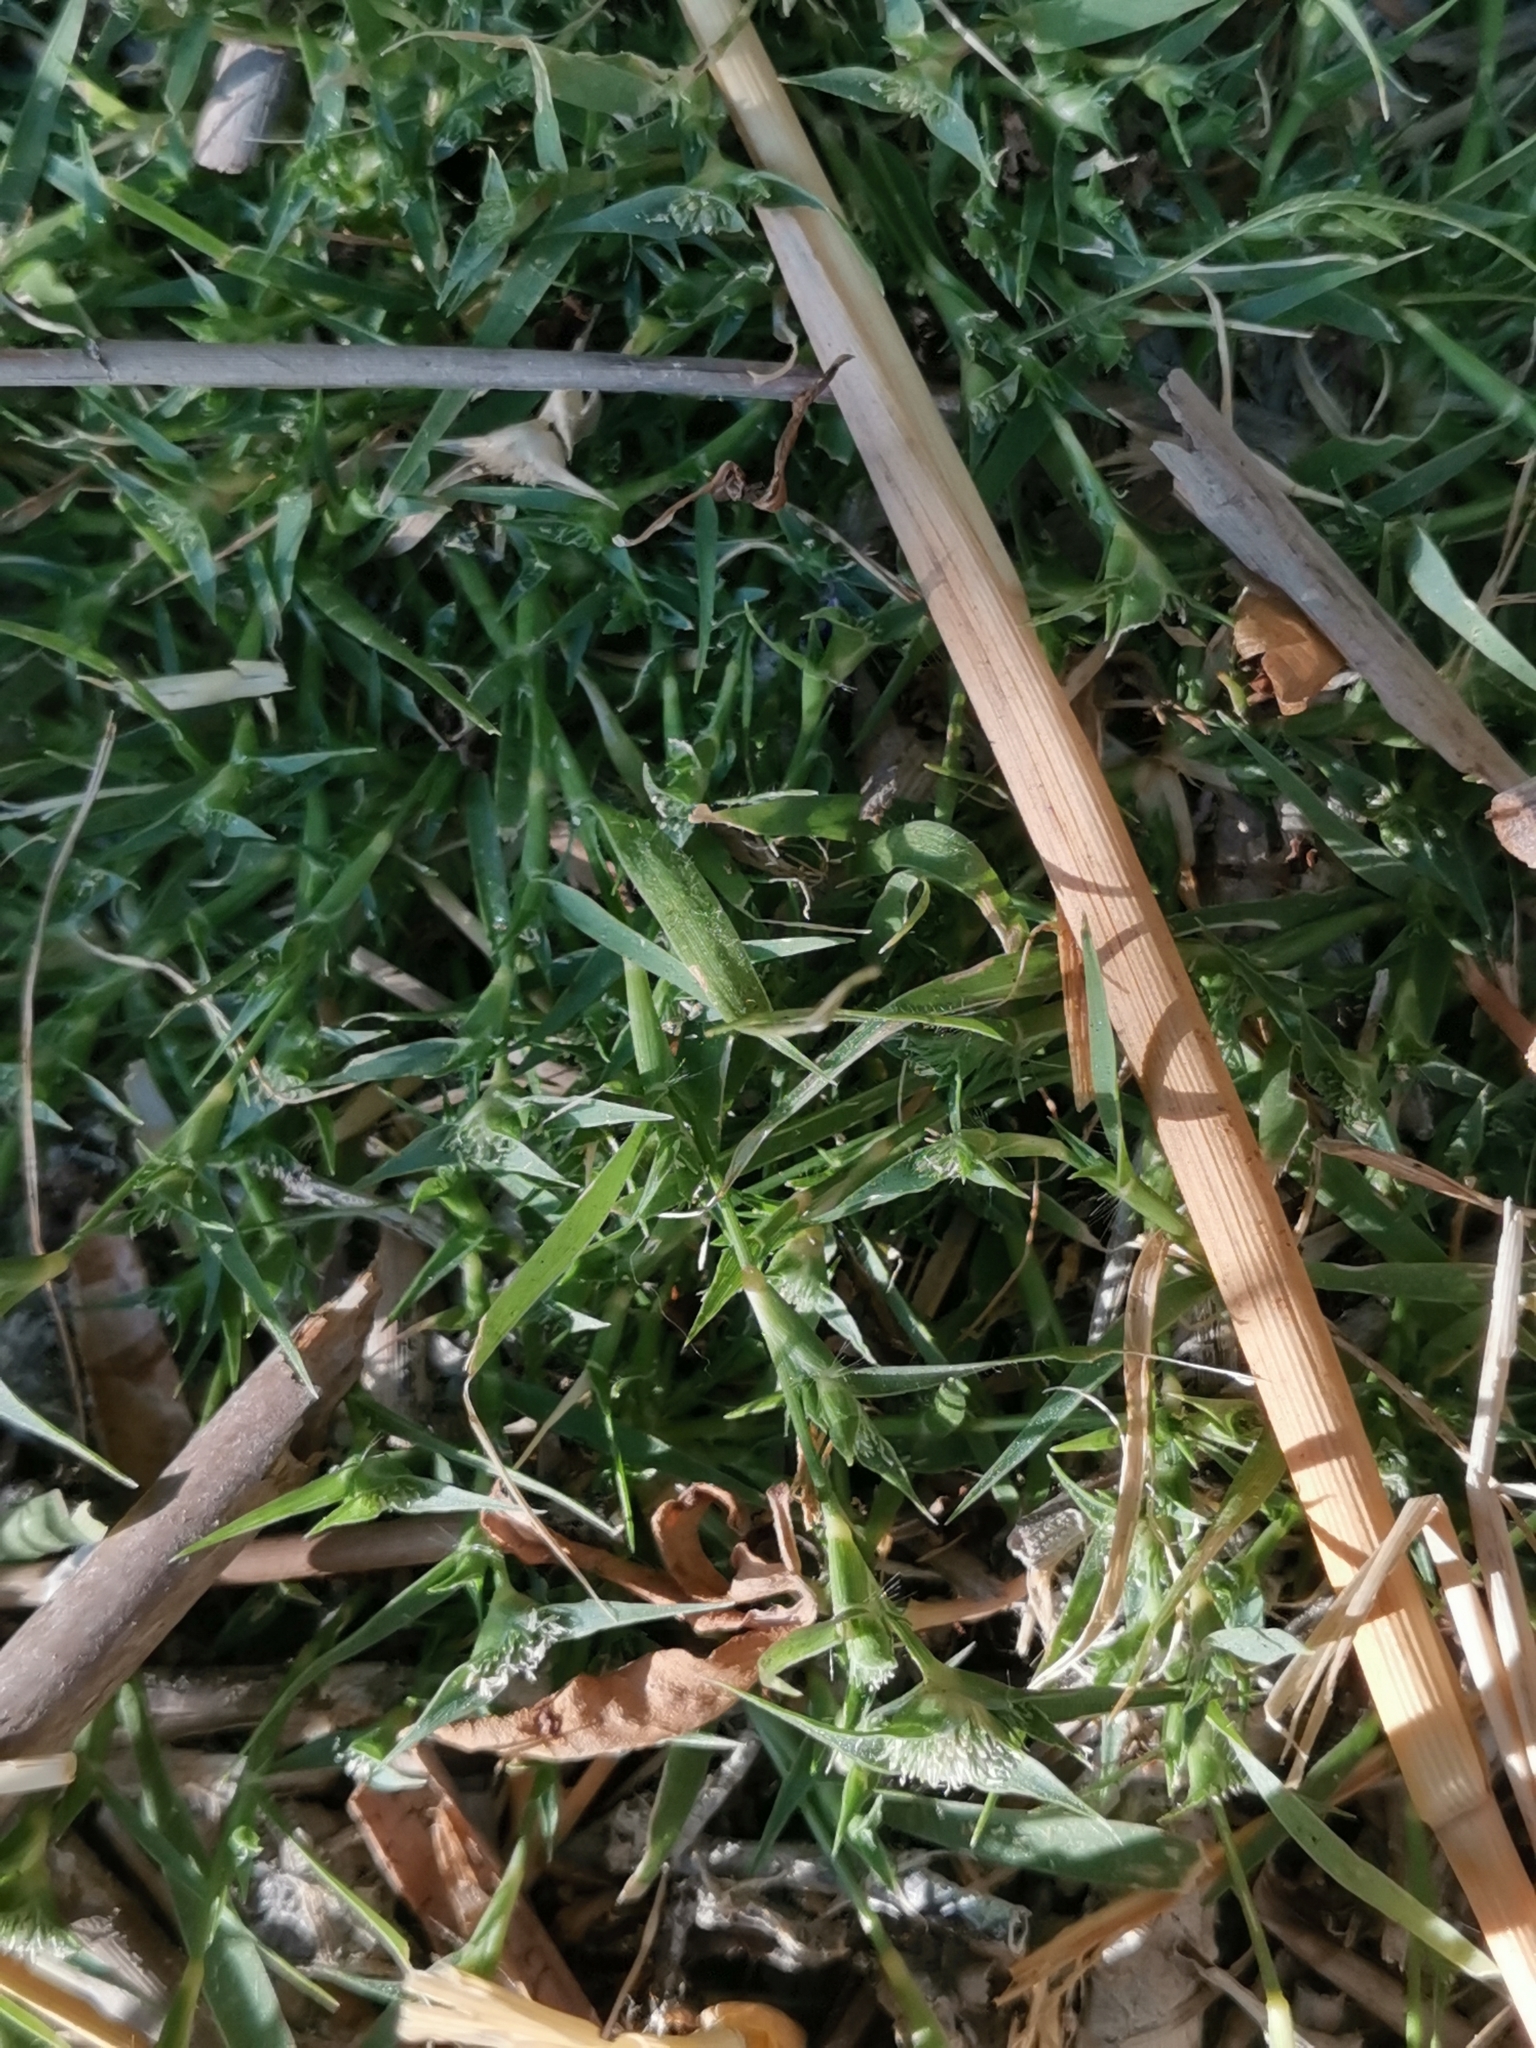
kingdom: Plantae
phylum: Tracheophyta
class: Liliopsida
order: Poales
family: Poaceae
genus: Sporobolus
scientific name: Sporobolus aculeatus
